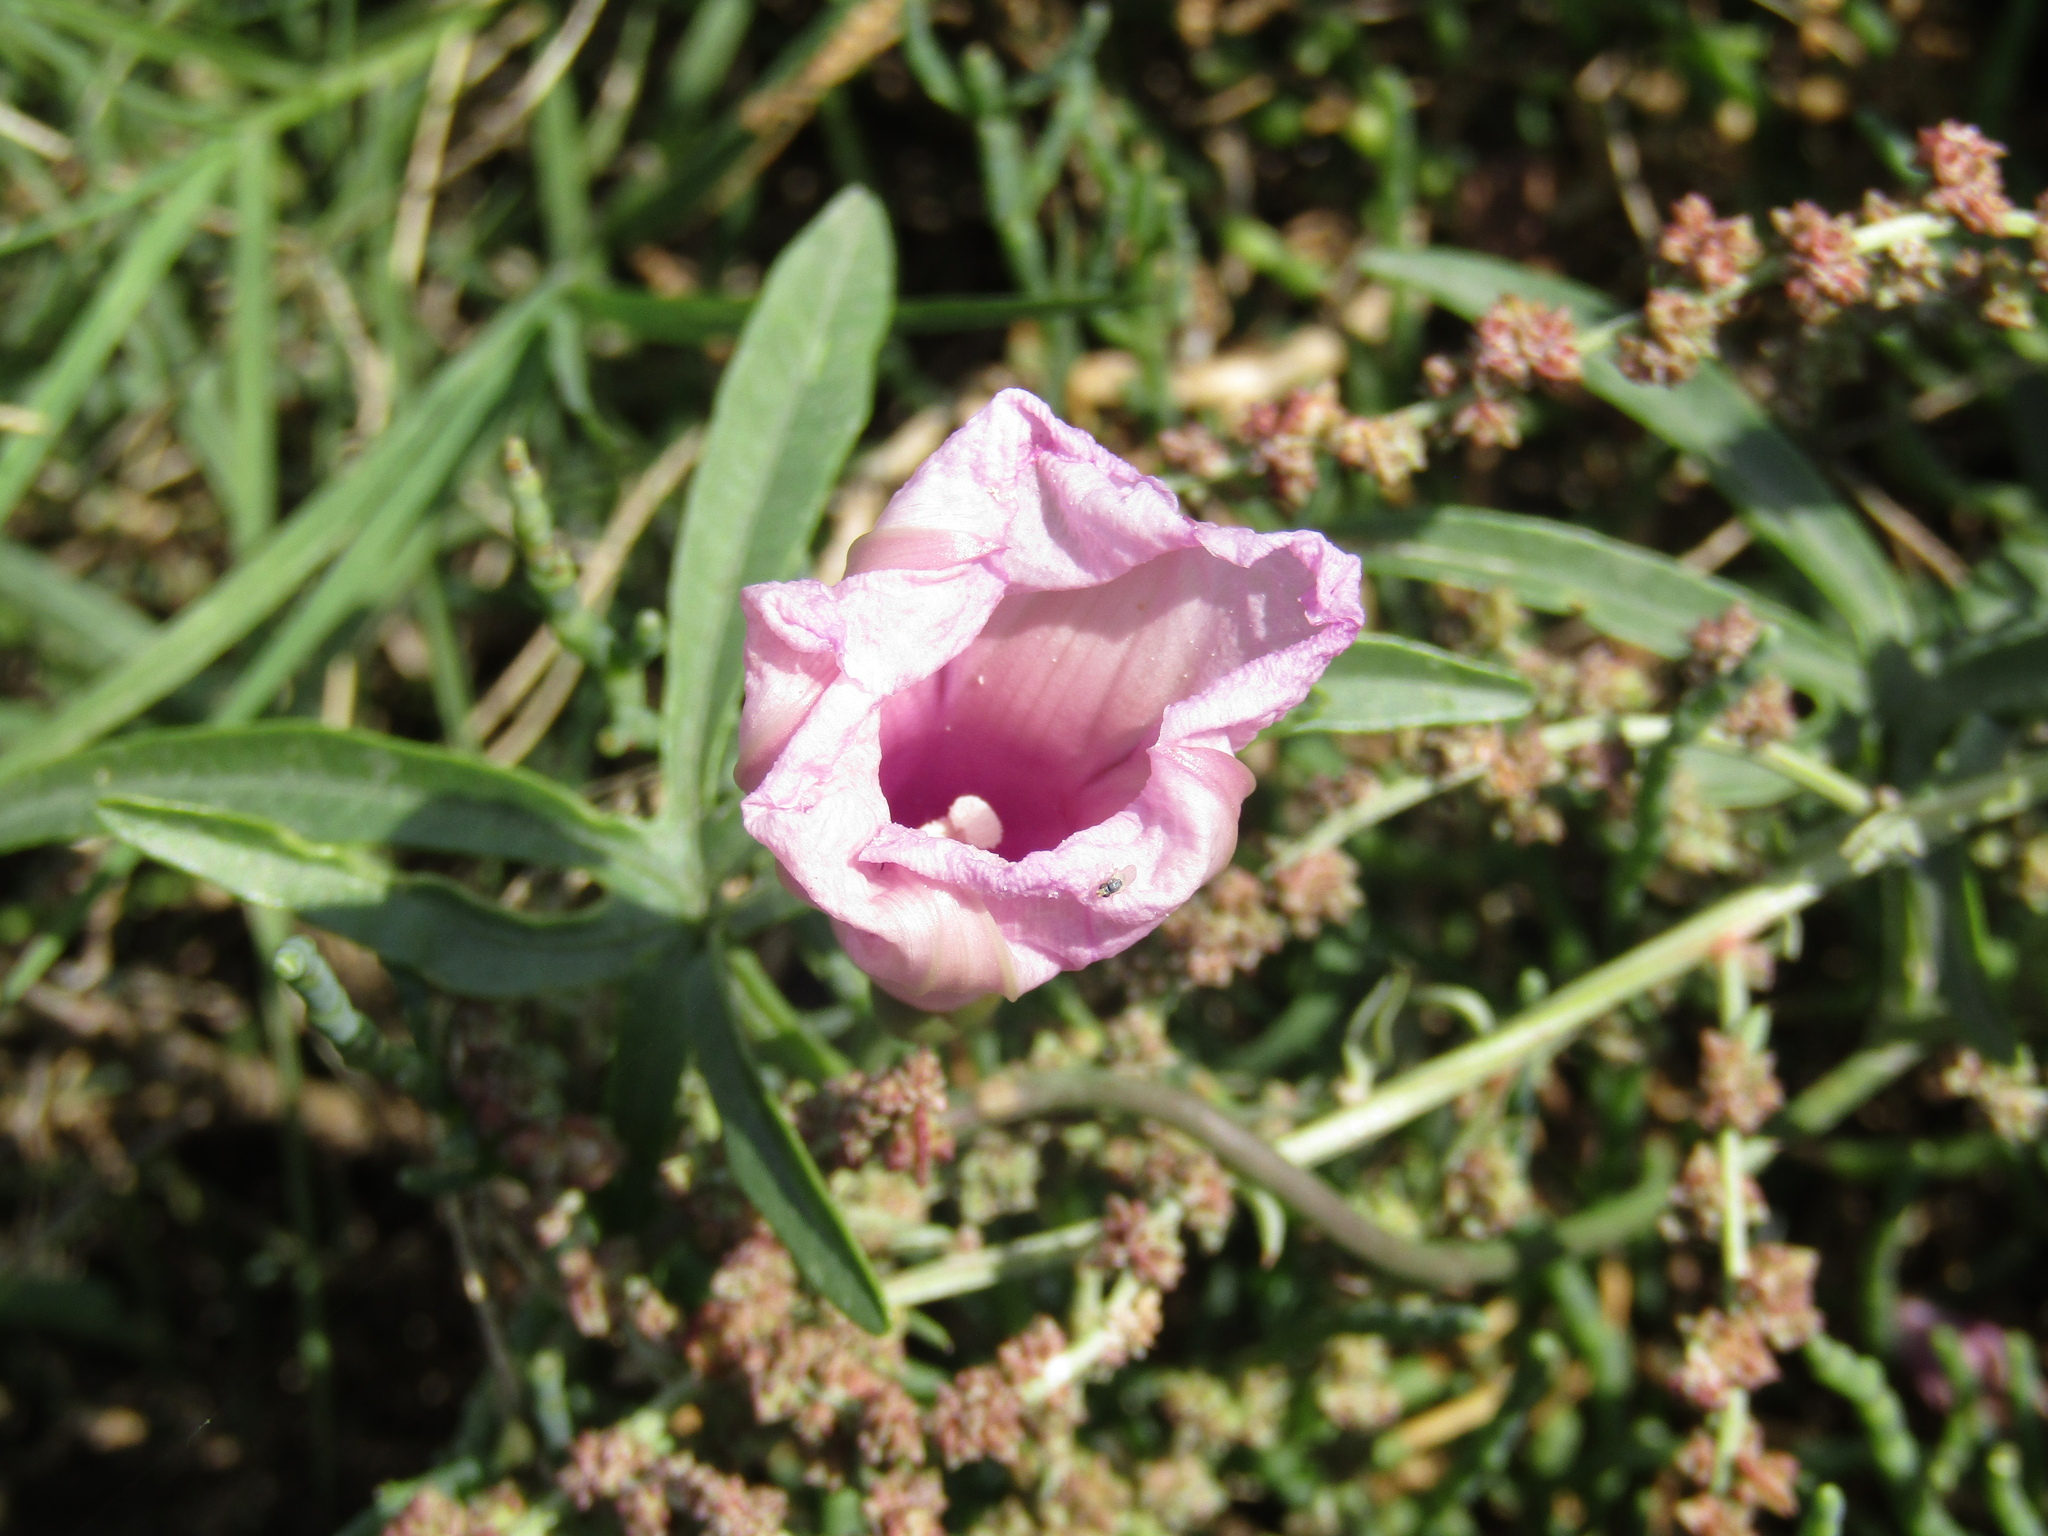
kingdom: Plantae
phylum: Tracheophyta
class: Magnoliopsida
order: Solanales
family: Convolvulaceae
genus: Ipomoea
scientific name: Ipomoea platensis
